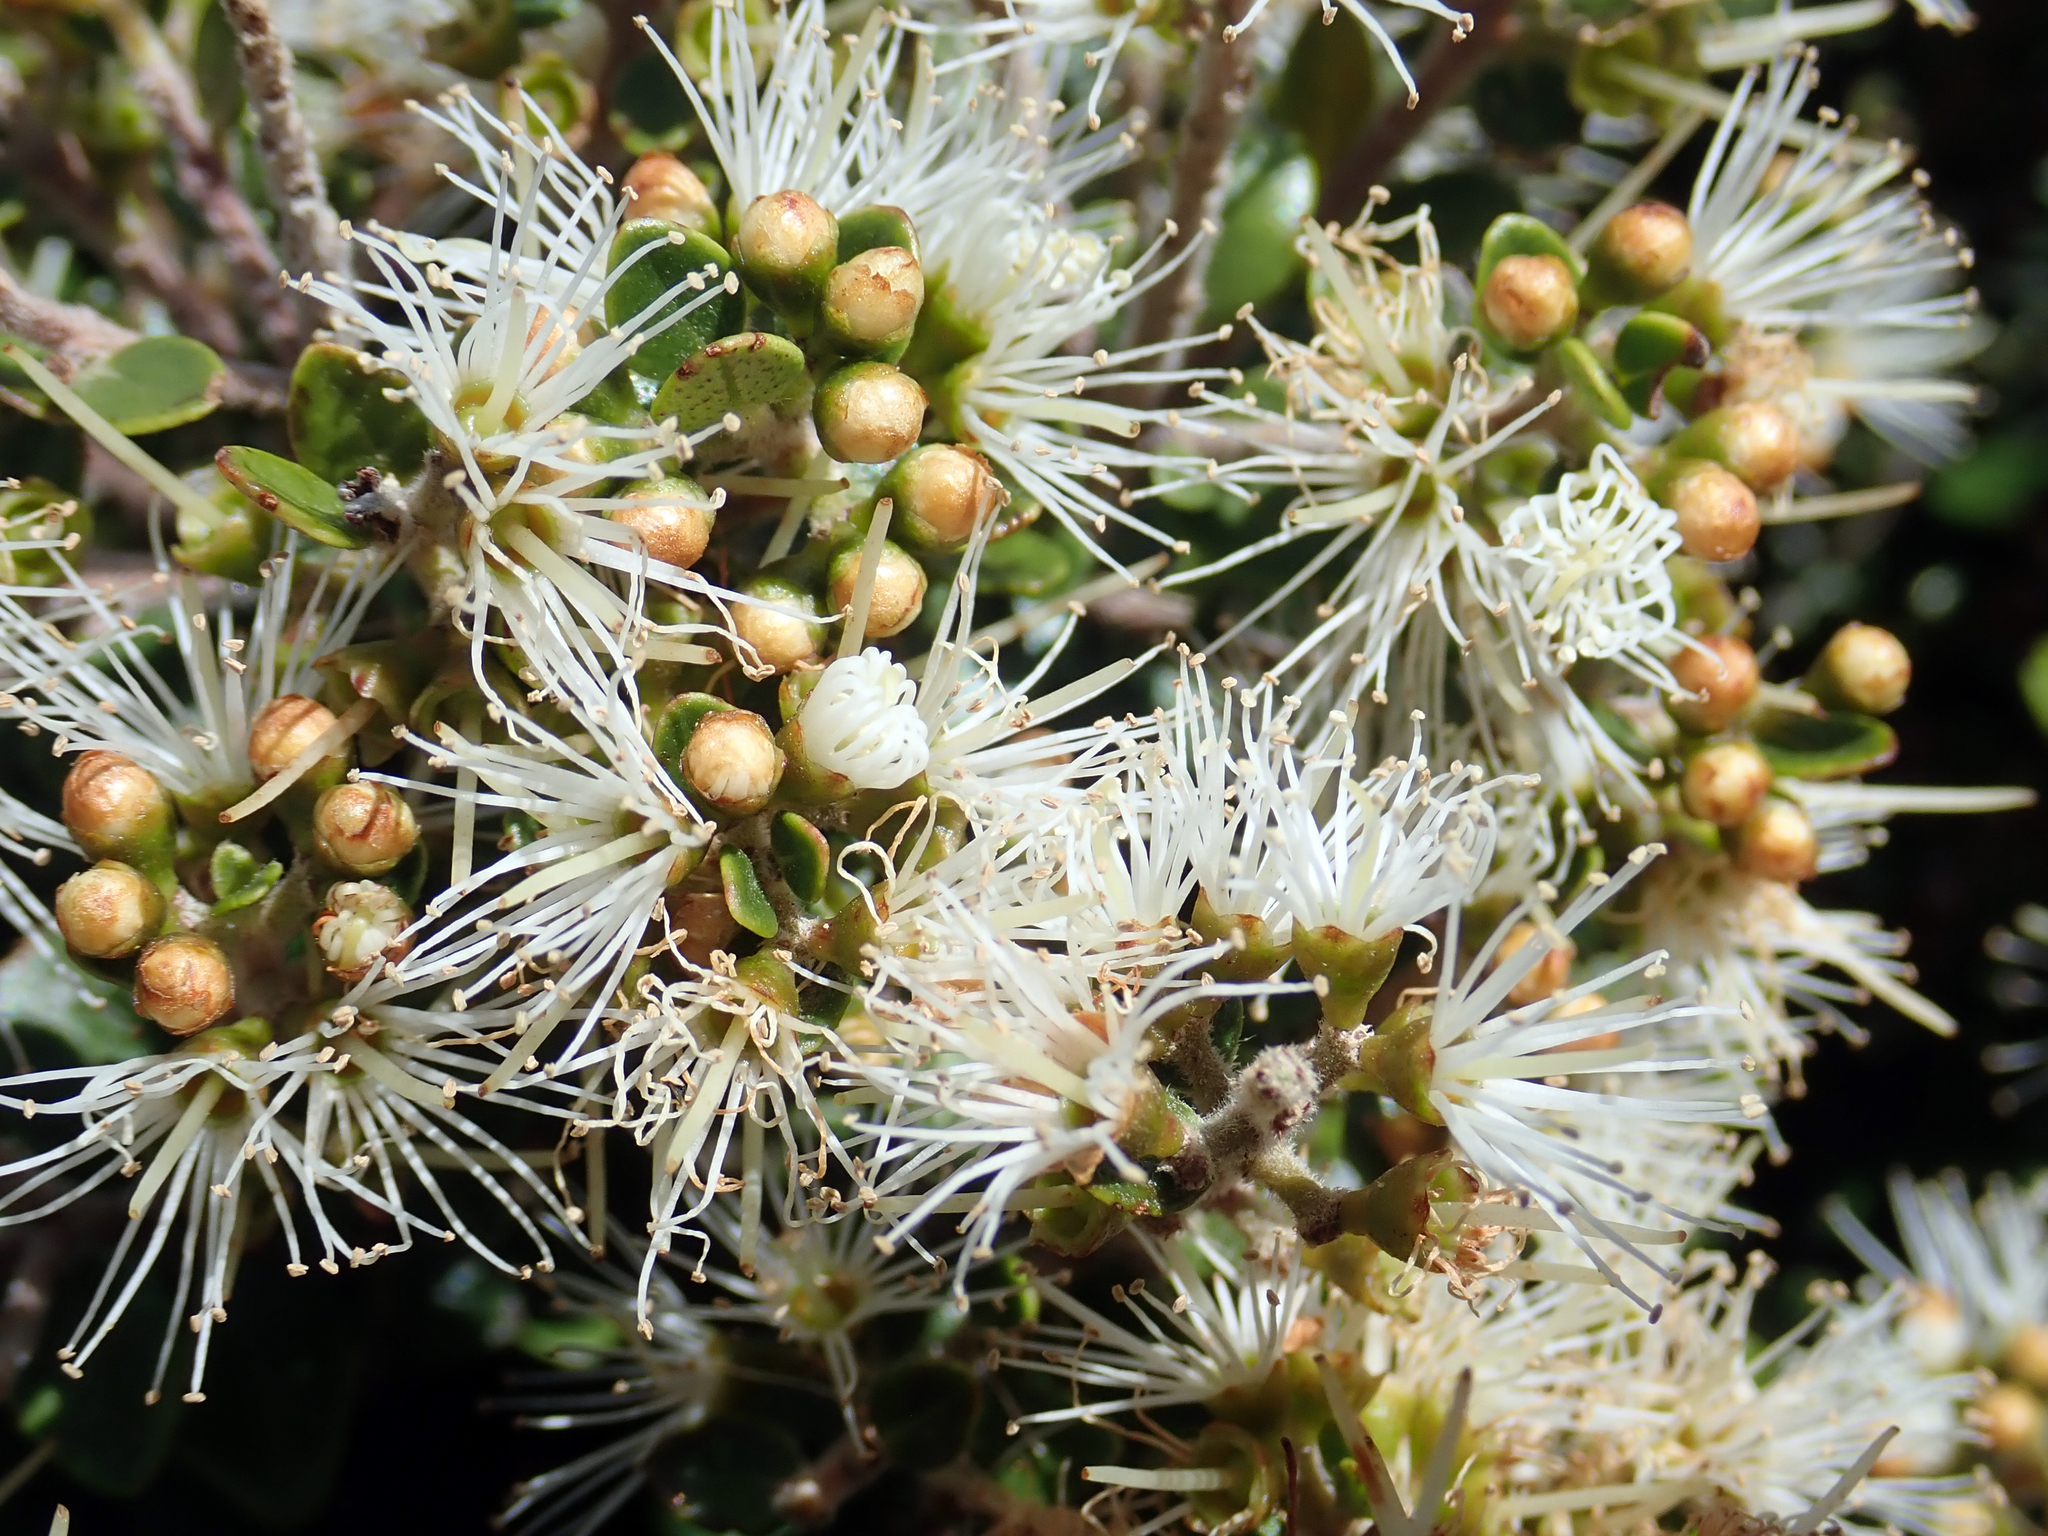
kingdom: Plantae
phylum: Tracheophyta
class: Magnoliopsida
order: Myrtales
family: Myrtaceae
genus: Metrosideros
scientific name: Metrosideros perforata
